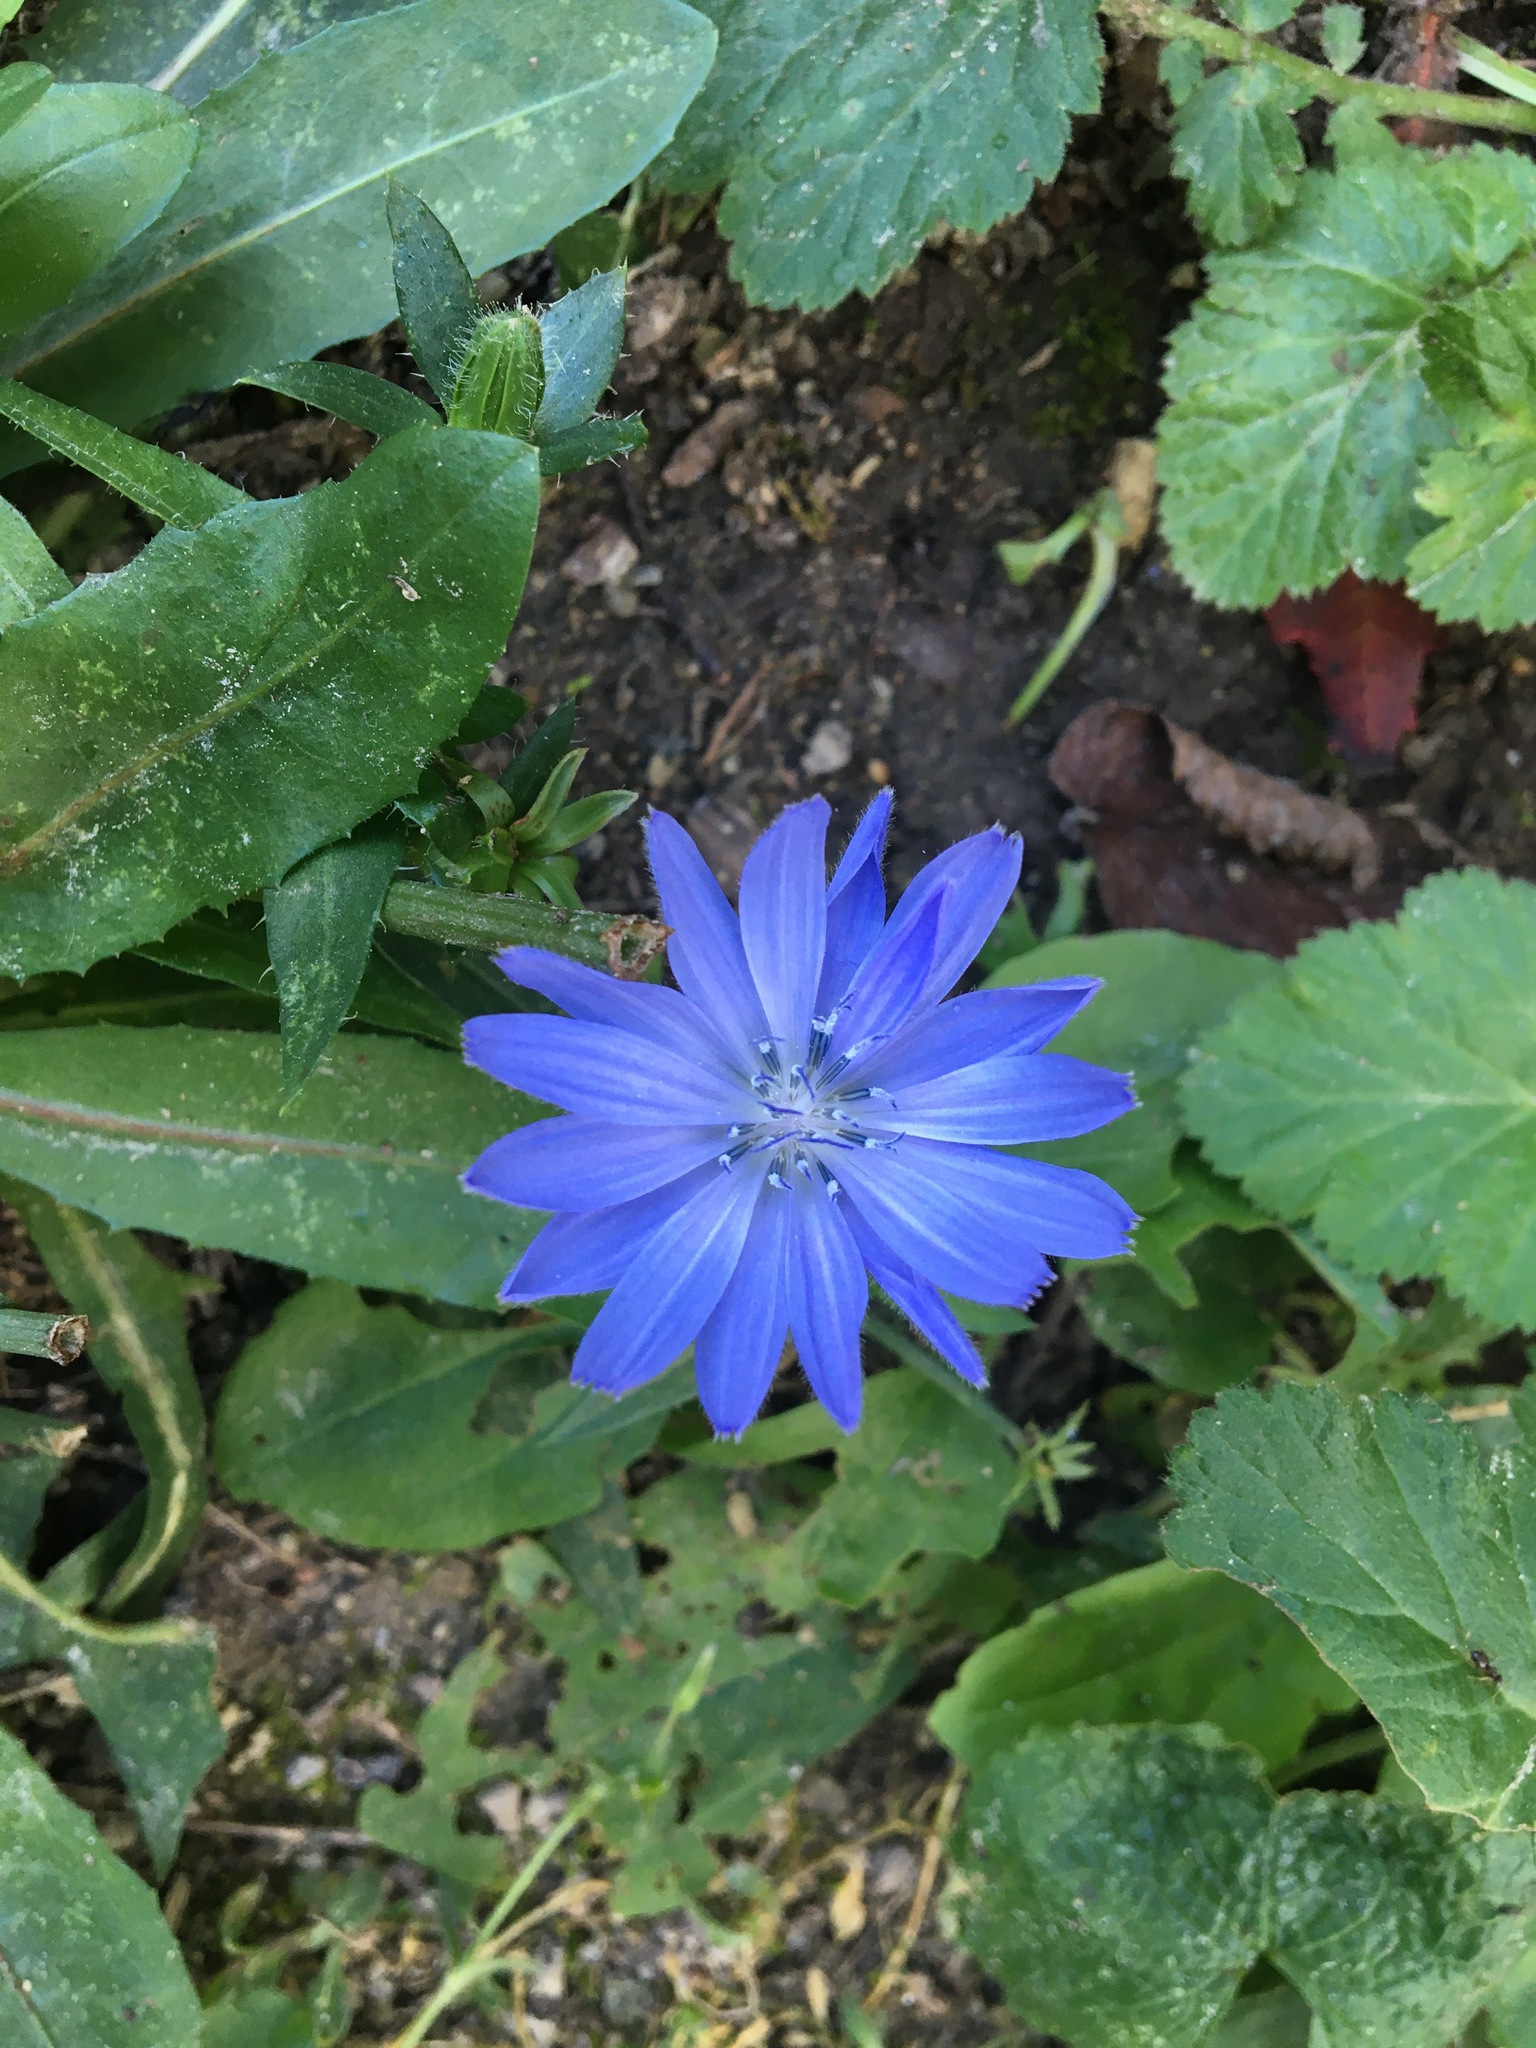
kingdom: Plantae
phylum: Tracheophyta
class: Magnoliopsida
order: Asterales
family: Asteraceae
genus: Cichorium
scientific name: Cichorium intybus
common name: Chicory
